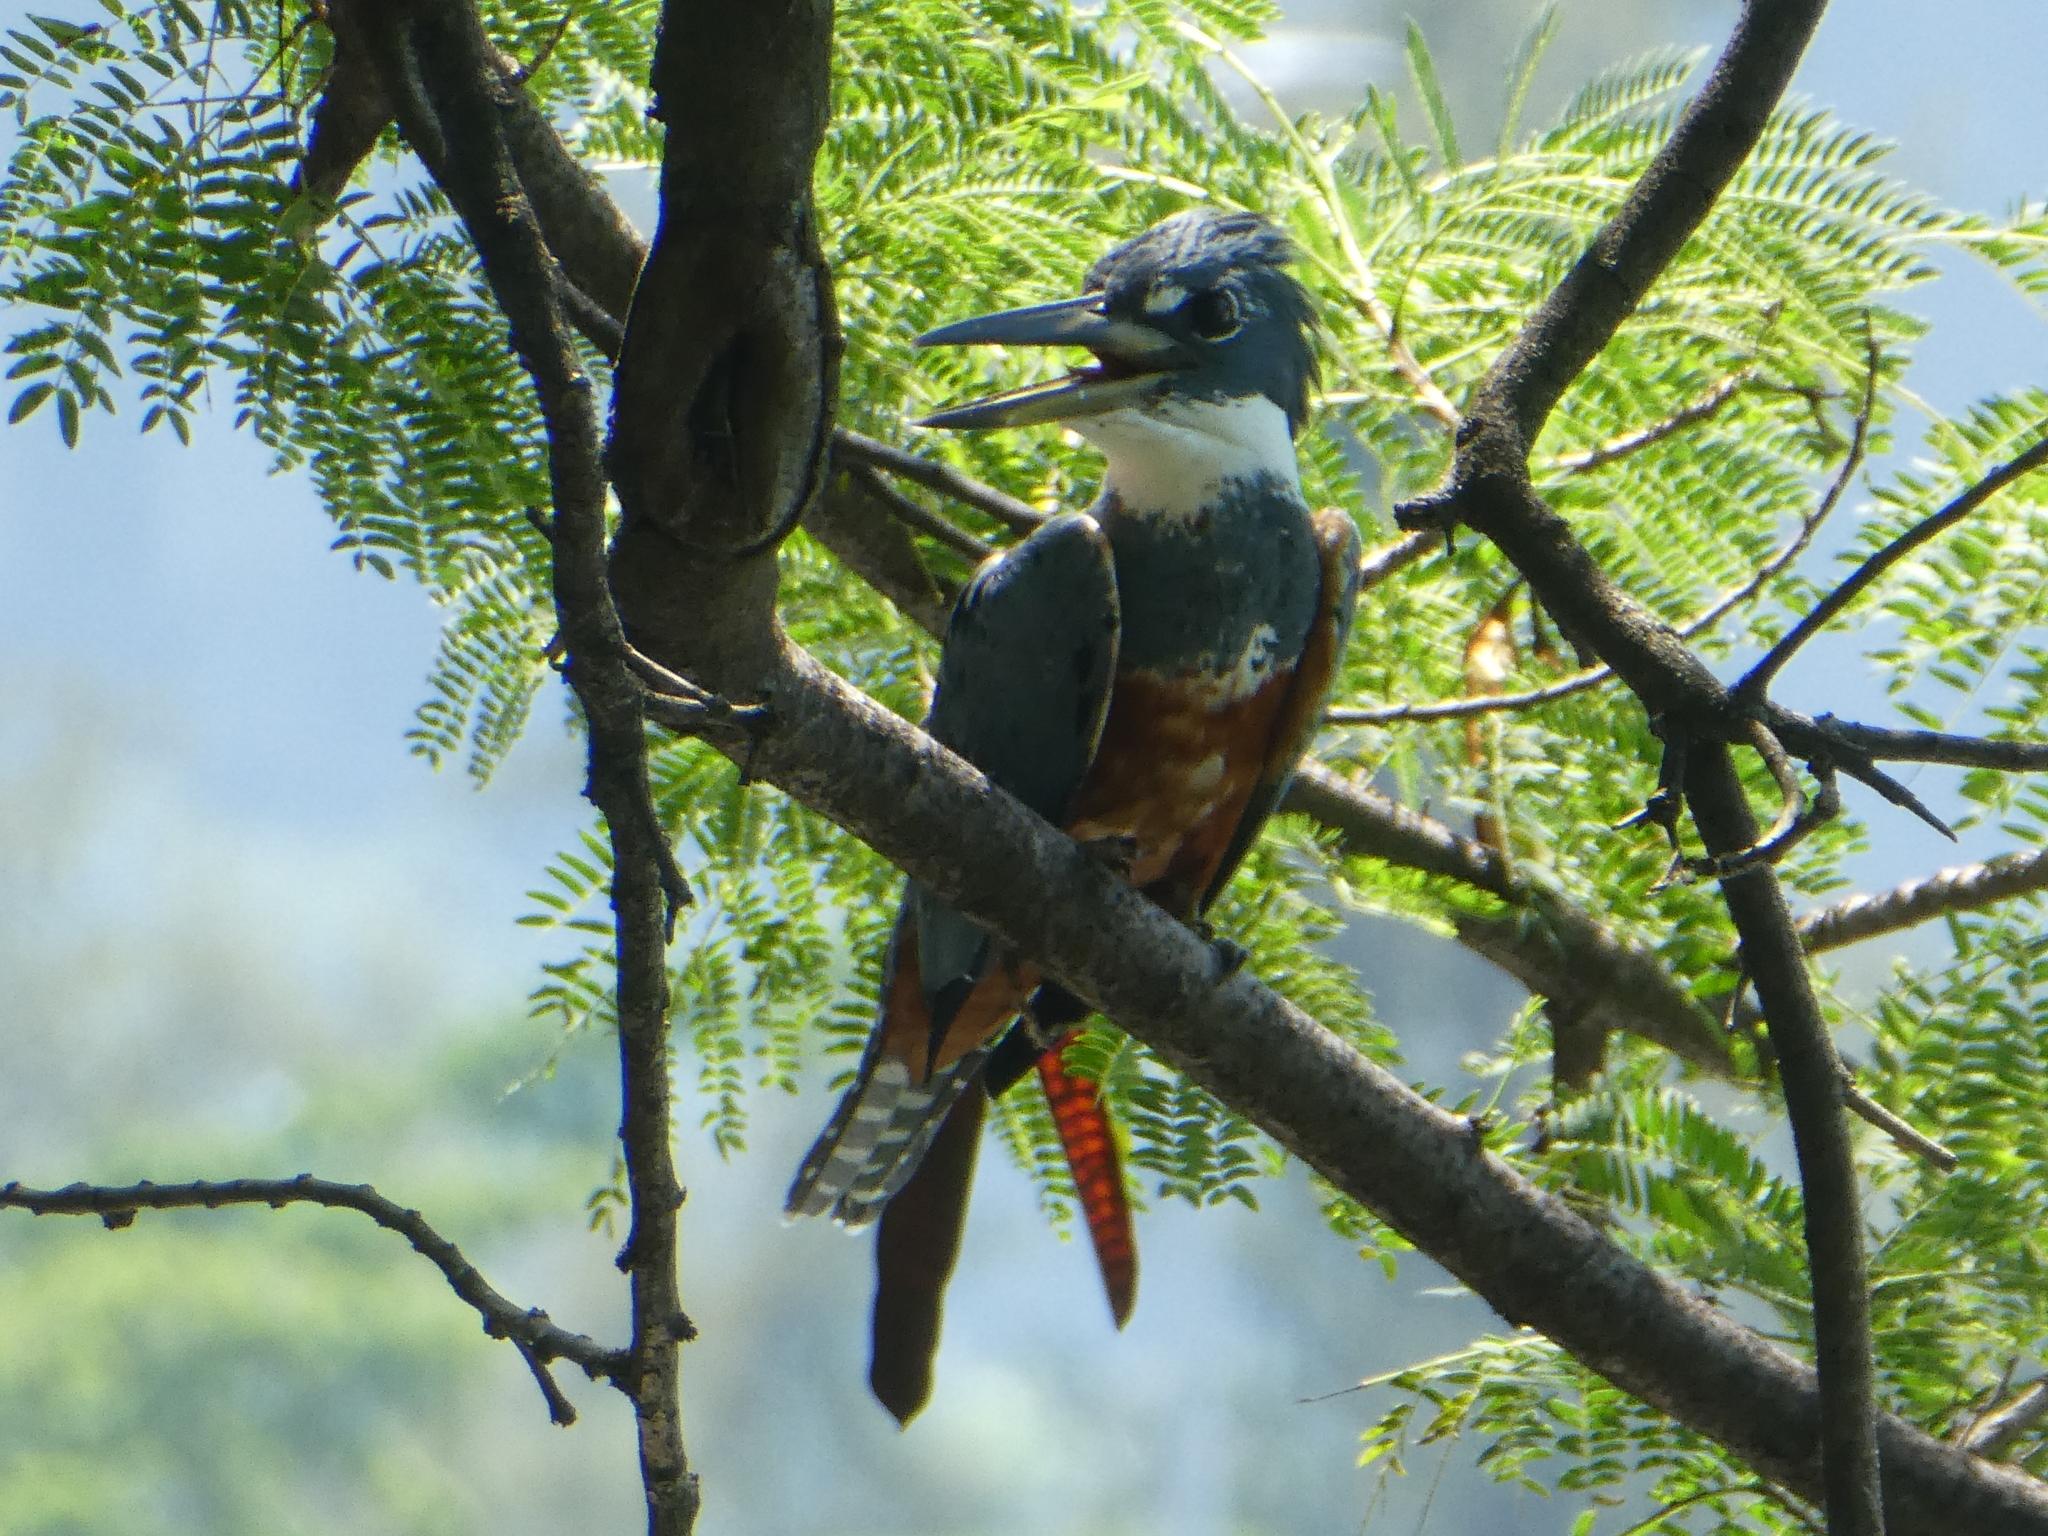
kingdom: Animalia
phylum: Chordata
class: Aves
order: Coraciiformes
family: Alcedinidae
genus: Megaceryle
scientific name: Megaceryle torquata
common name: Ringed kingfisher
